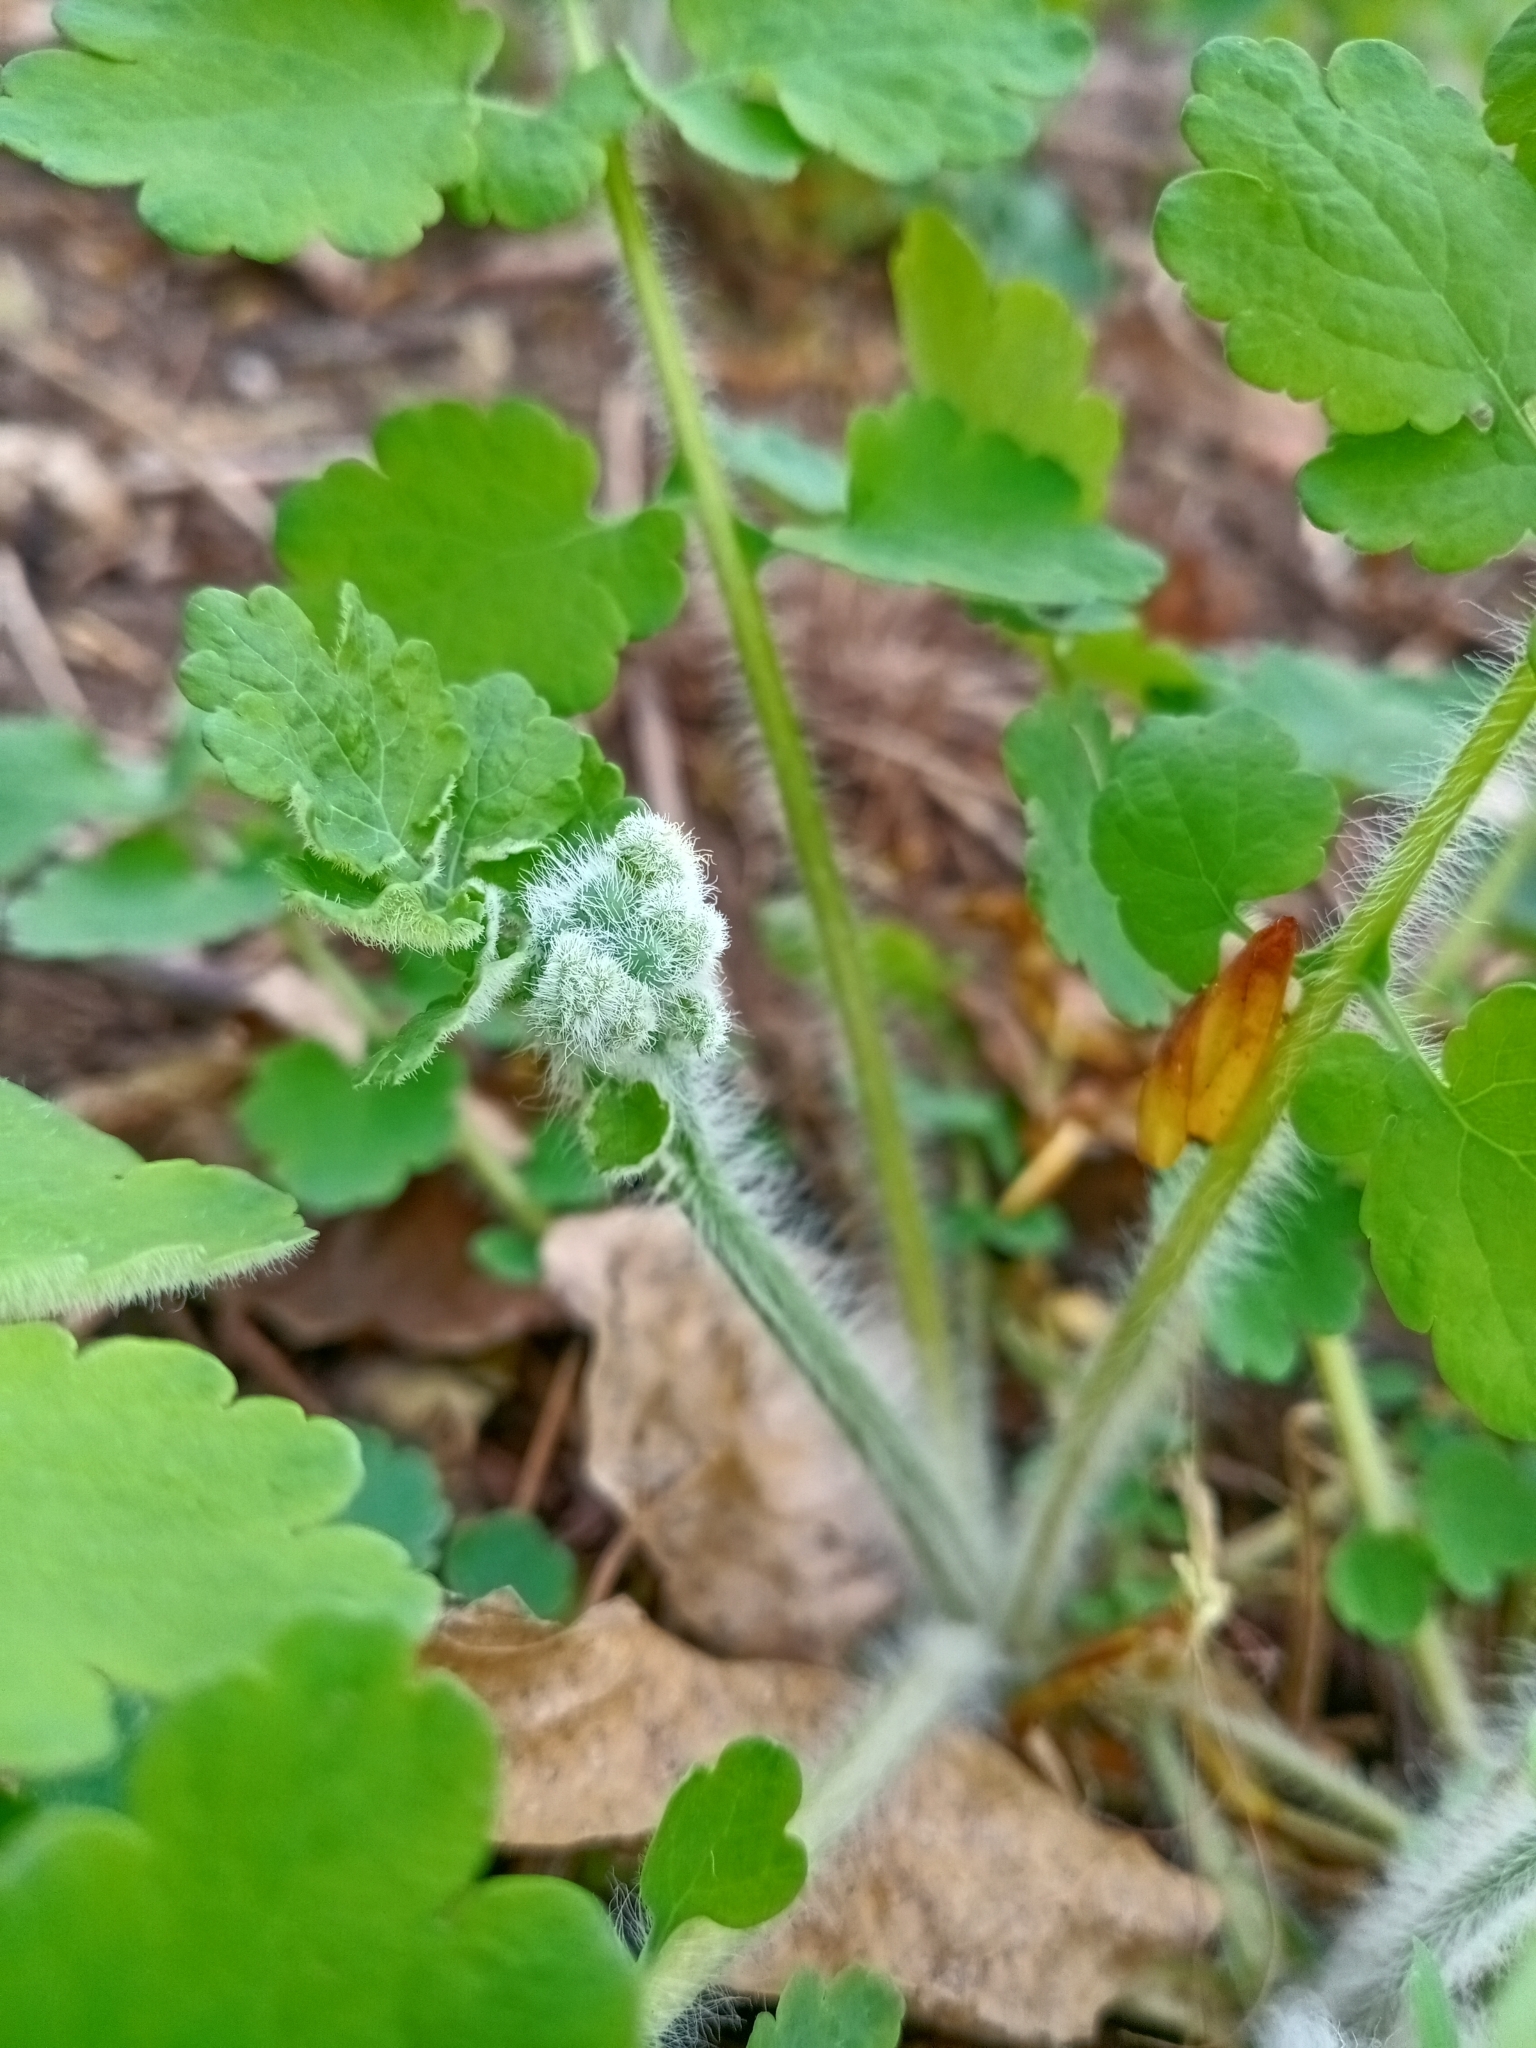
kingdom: Plantae
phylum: Tracheophyta
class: Magnoliopsida
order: Ranunculales
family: Papaveraceae
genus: Chelidonium
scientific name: Chelidonium majus
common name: Greater celandine
